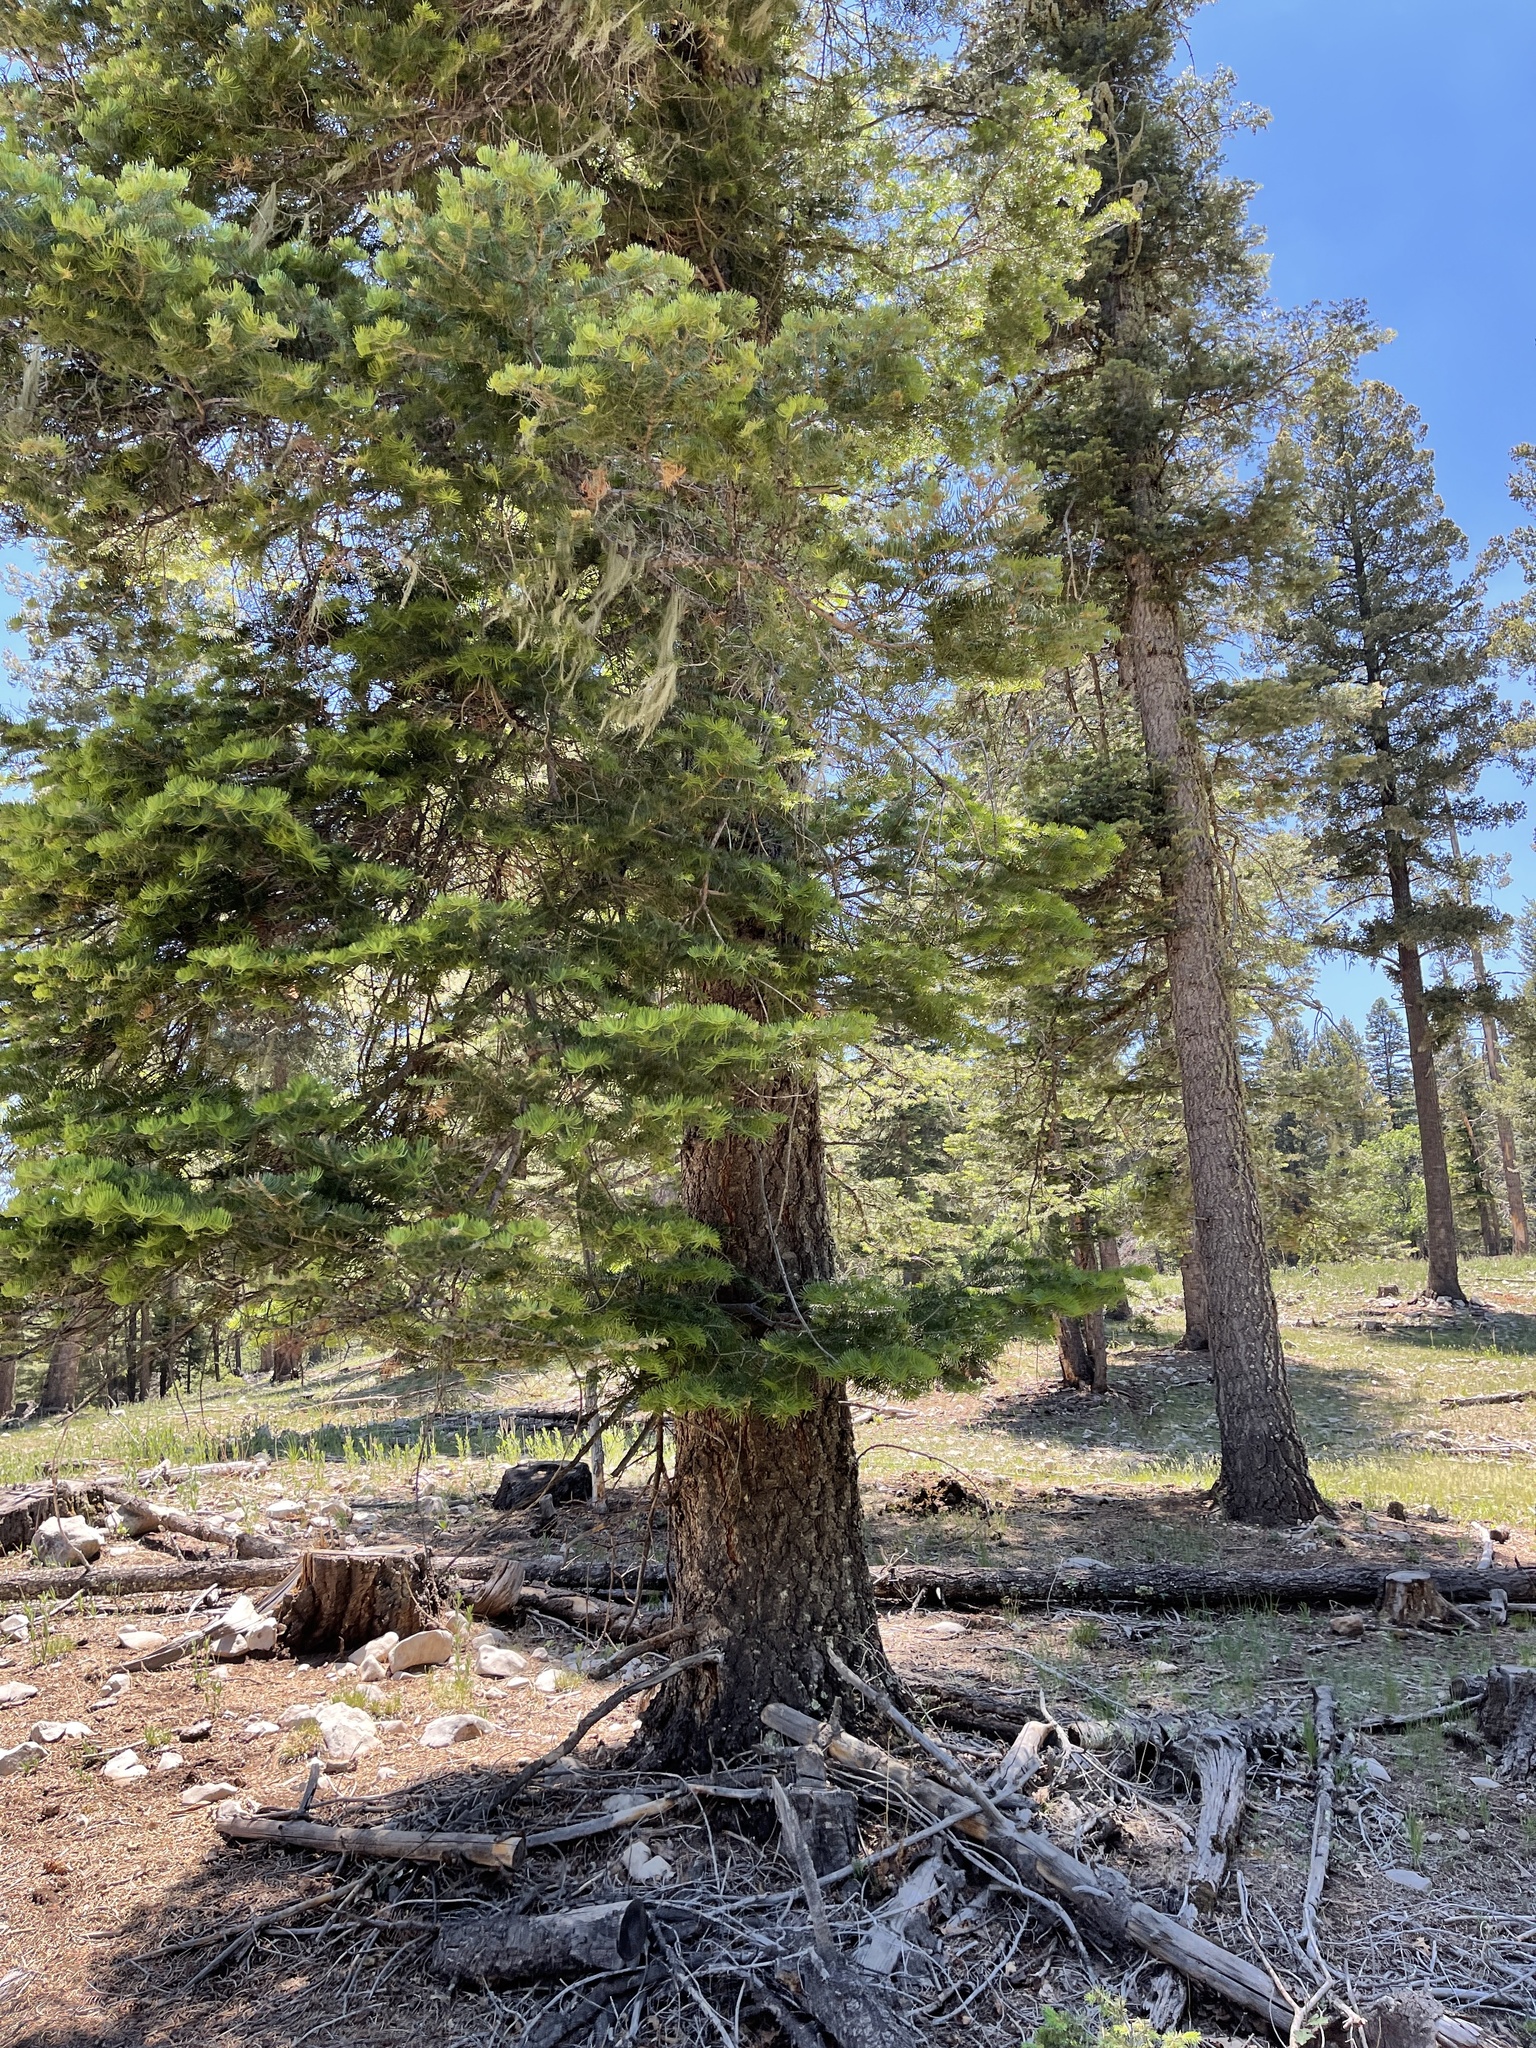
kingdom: Plantae
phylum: Tracheophyta
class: Pinopsida
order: Pinales
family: Pinaceae
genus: Abies
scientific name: Abies concolor
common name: Colorado fir
